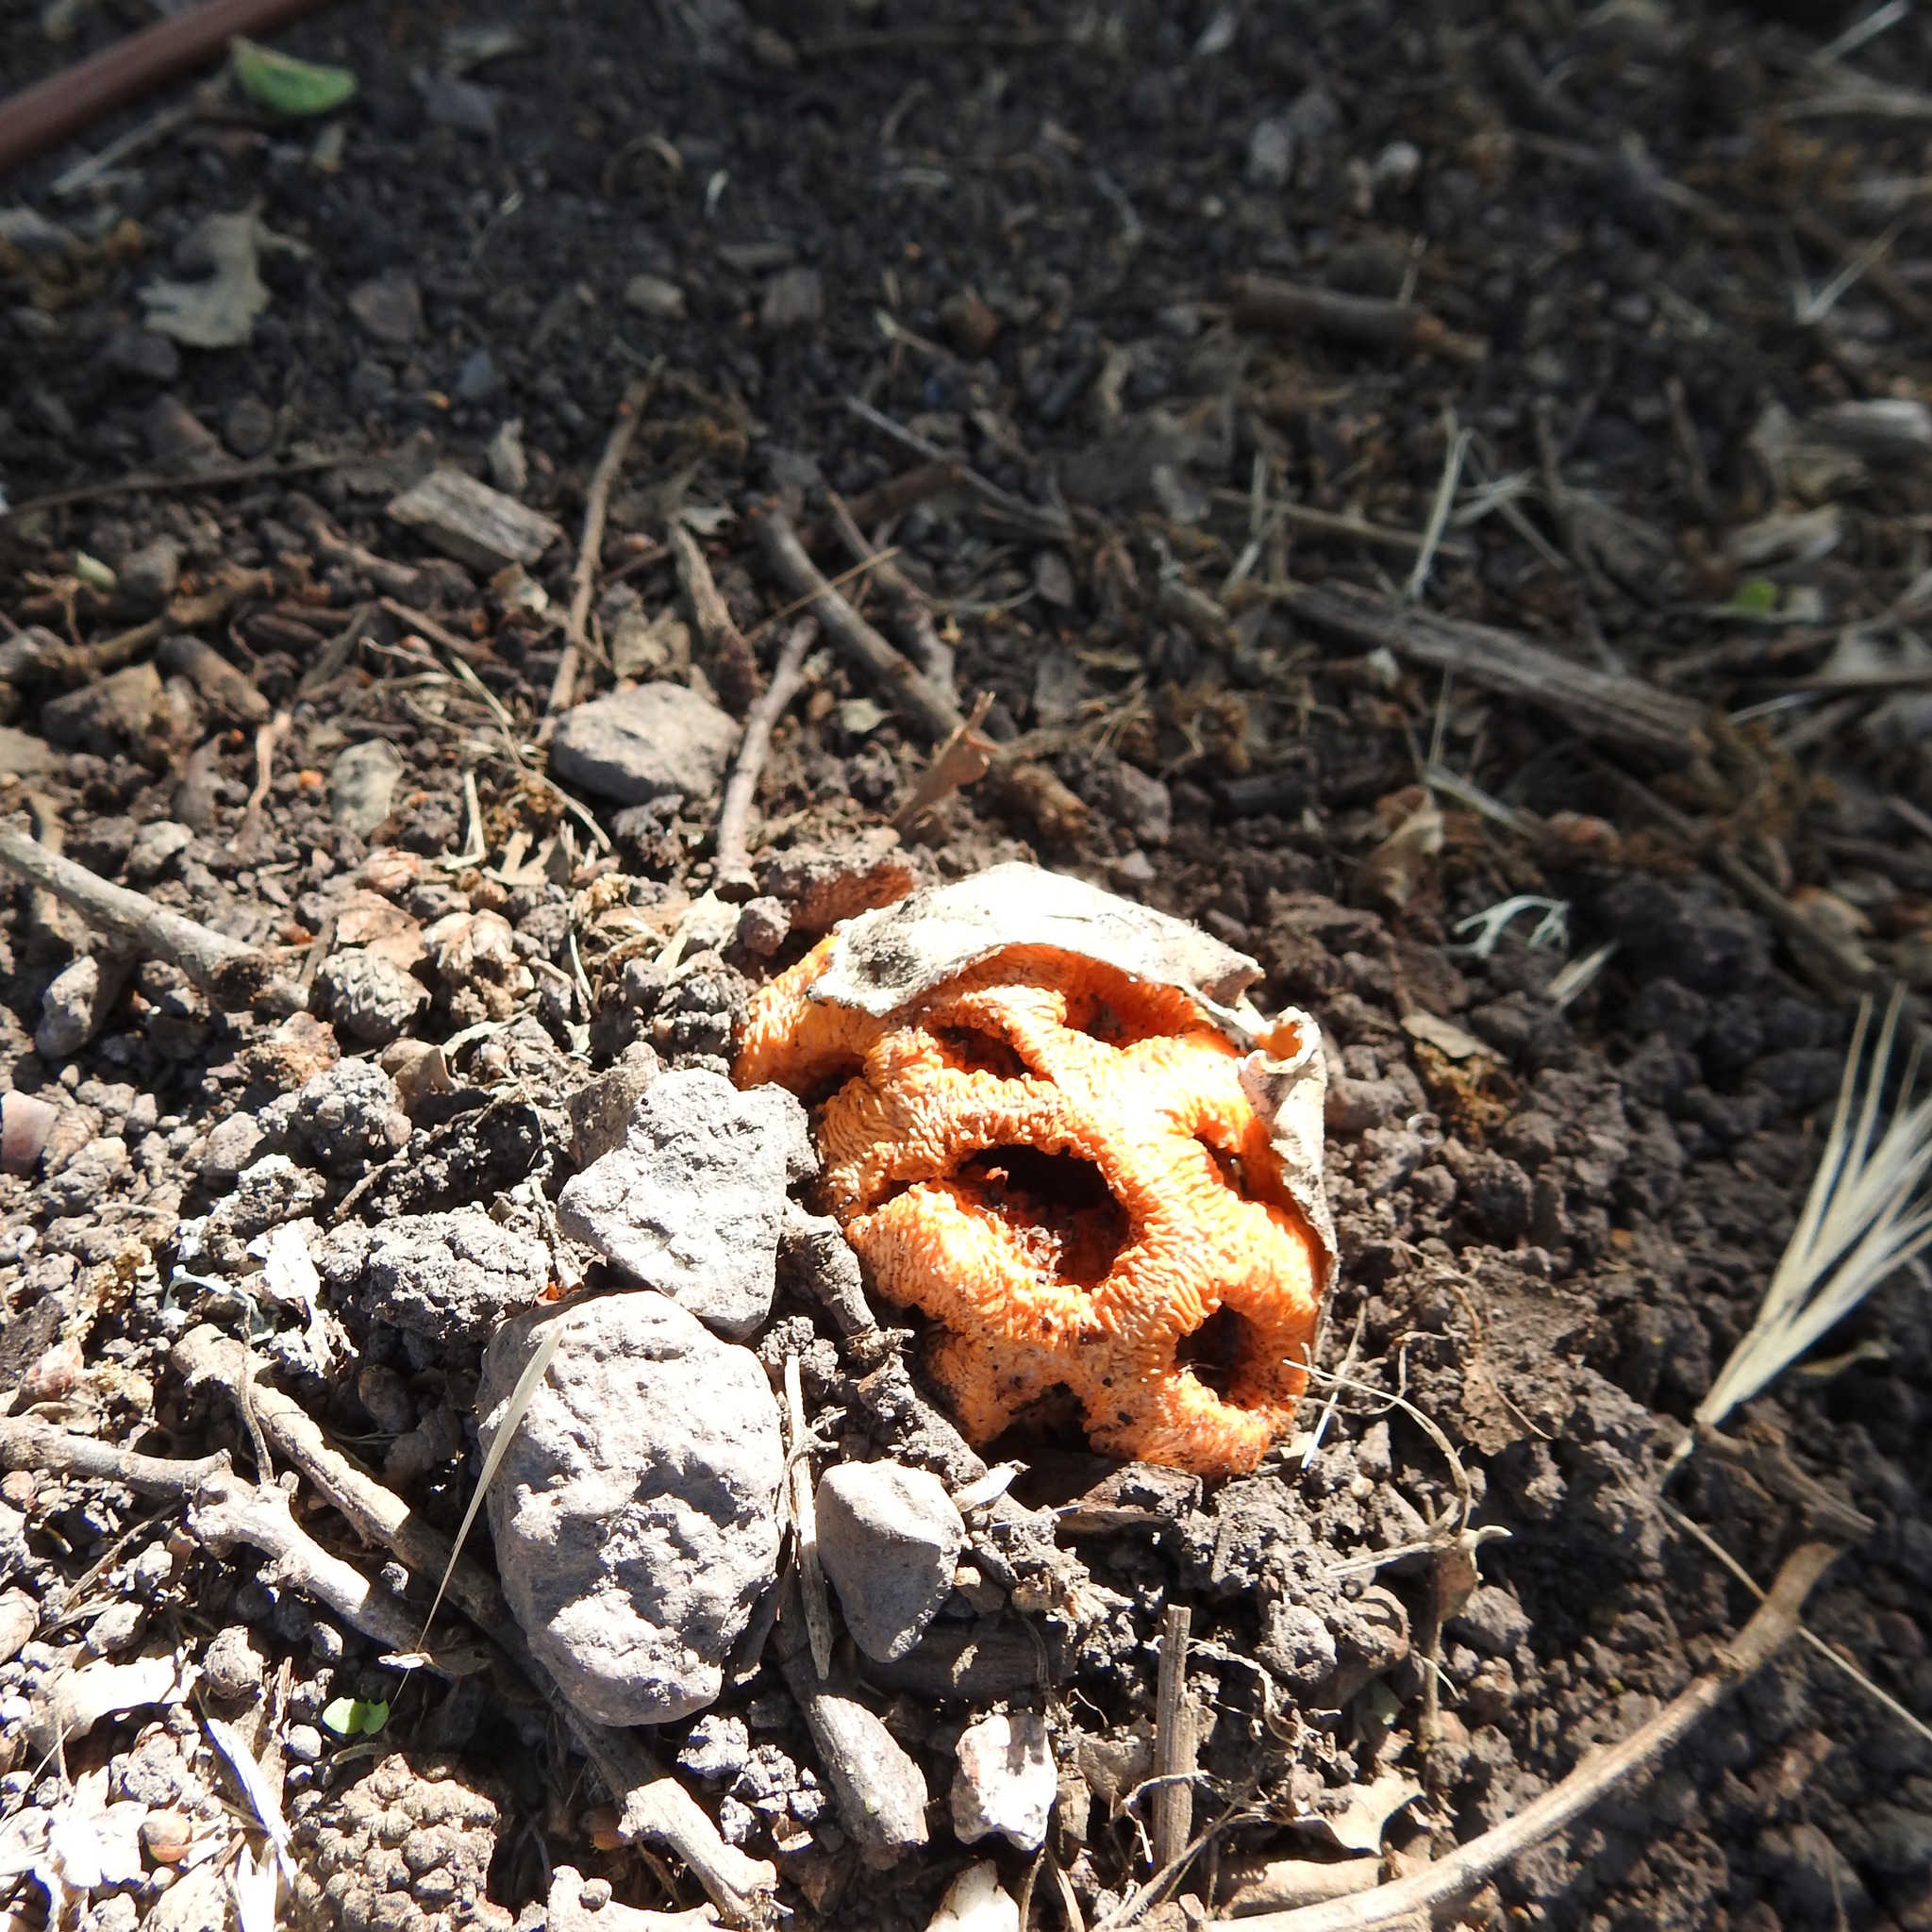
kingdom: Fungi
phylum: Basidiomycota
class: Agaricomycetes
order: Phallales
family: Phallaceae
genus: Clathrus
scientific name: Clathrus ruber
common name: Red cage
